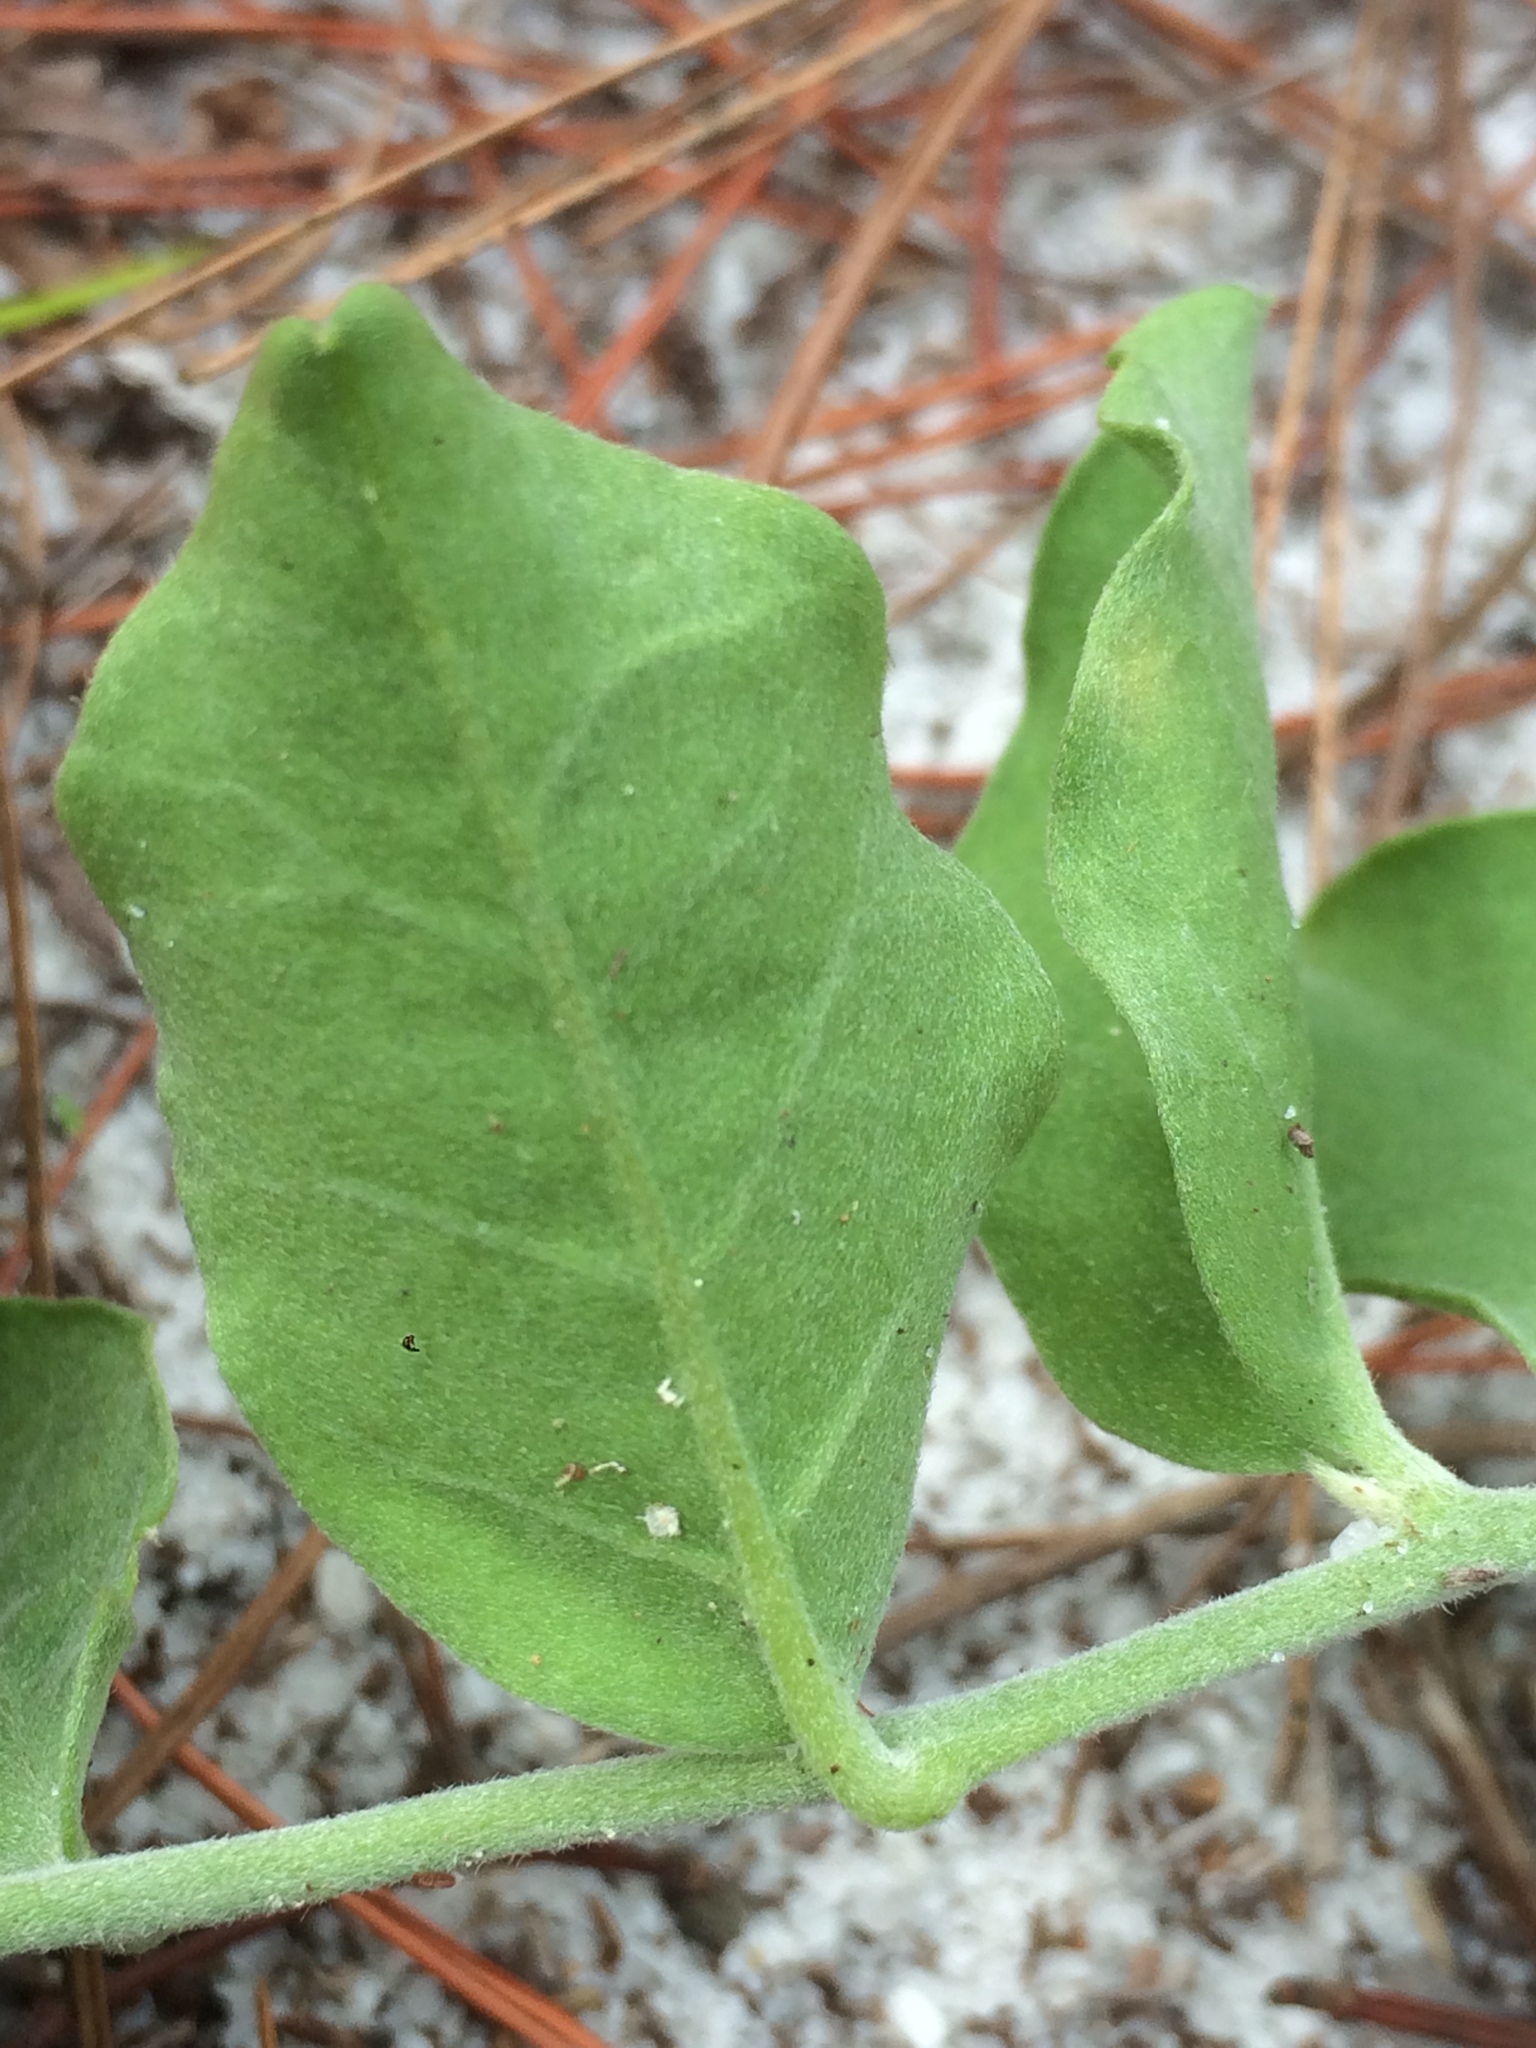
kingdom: Plantae
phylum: Tracheophyta
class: Magnoliopsida
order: Solanales
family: Convolvulaceae
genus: Bonamia
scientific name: Bonamia grandiflora
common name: Florida bonamia
